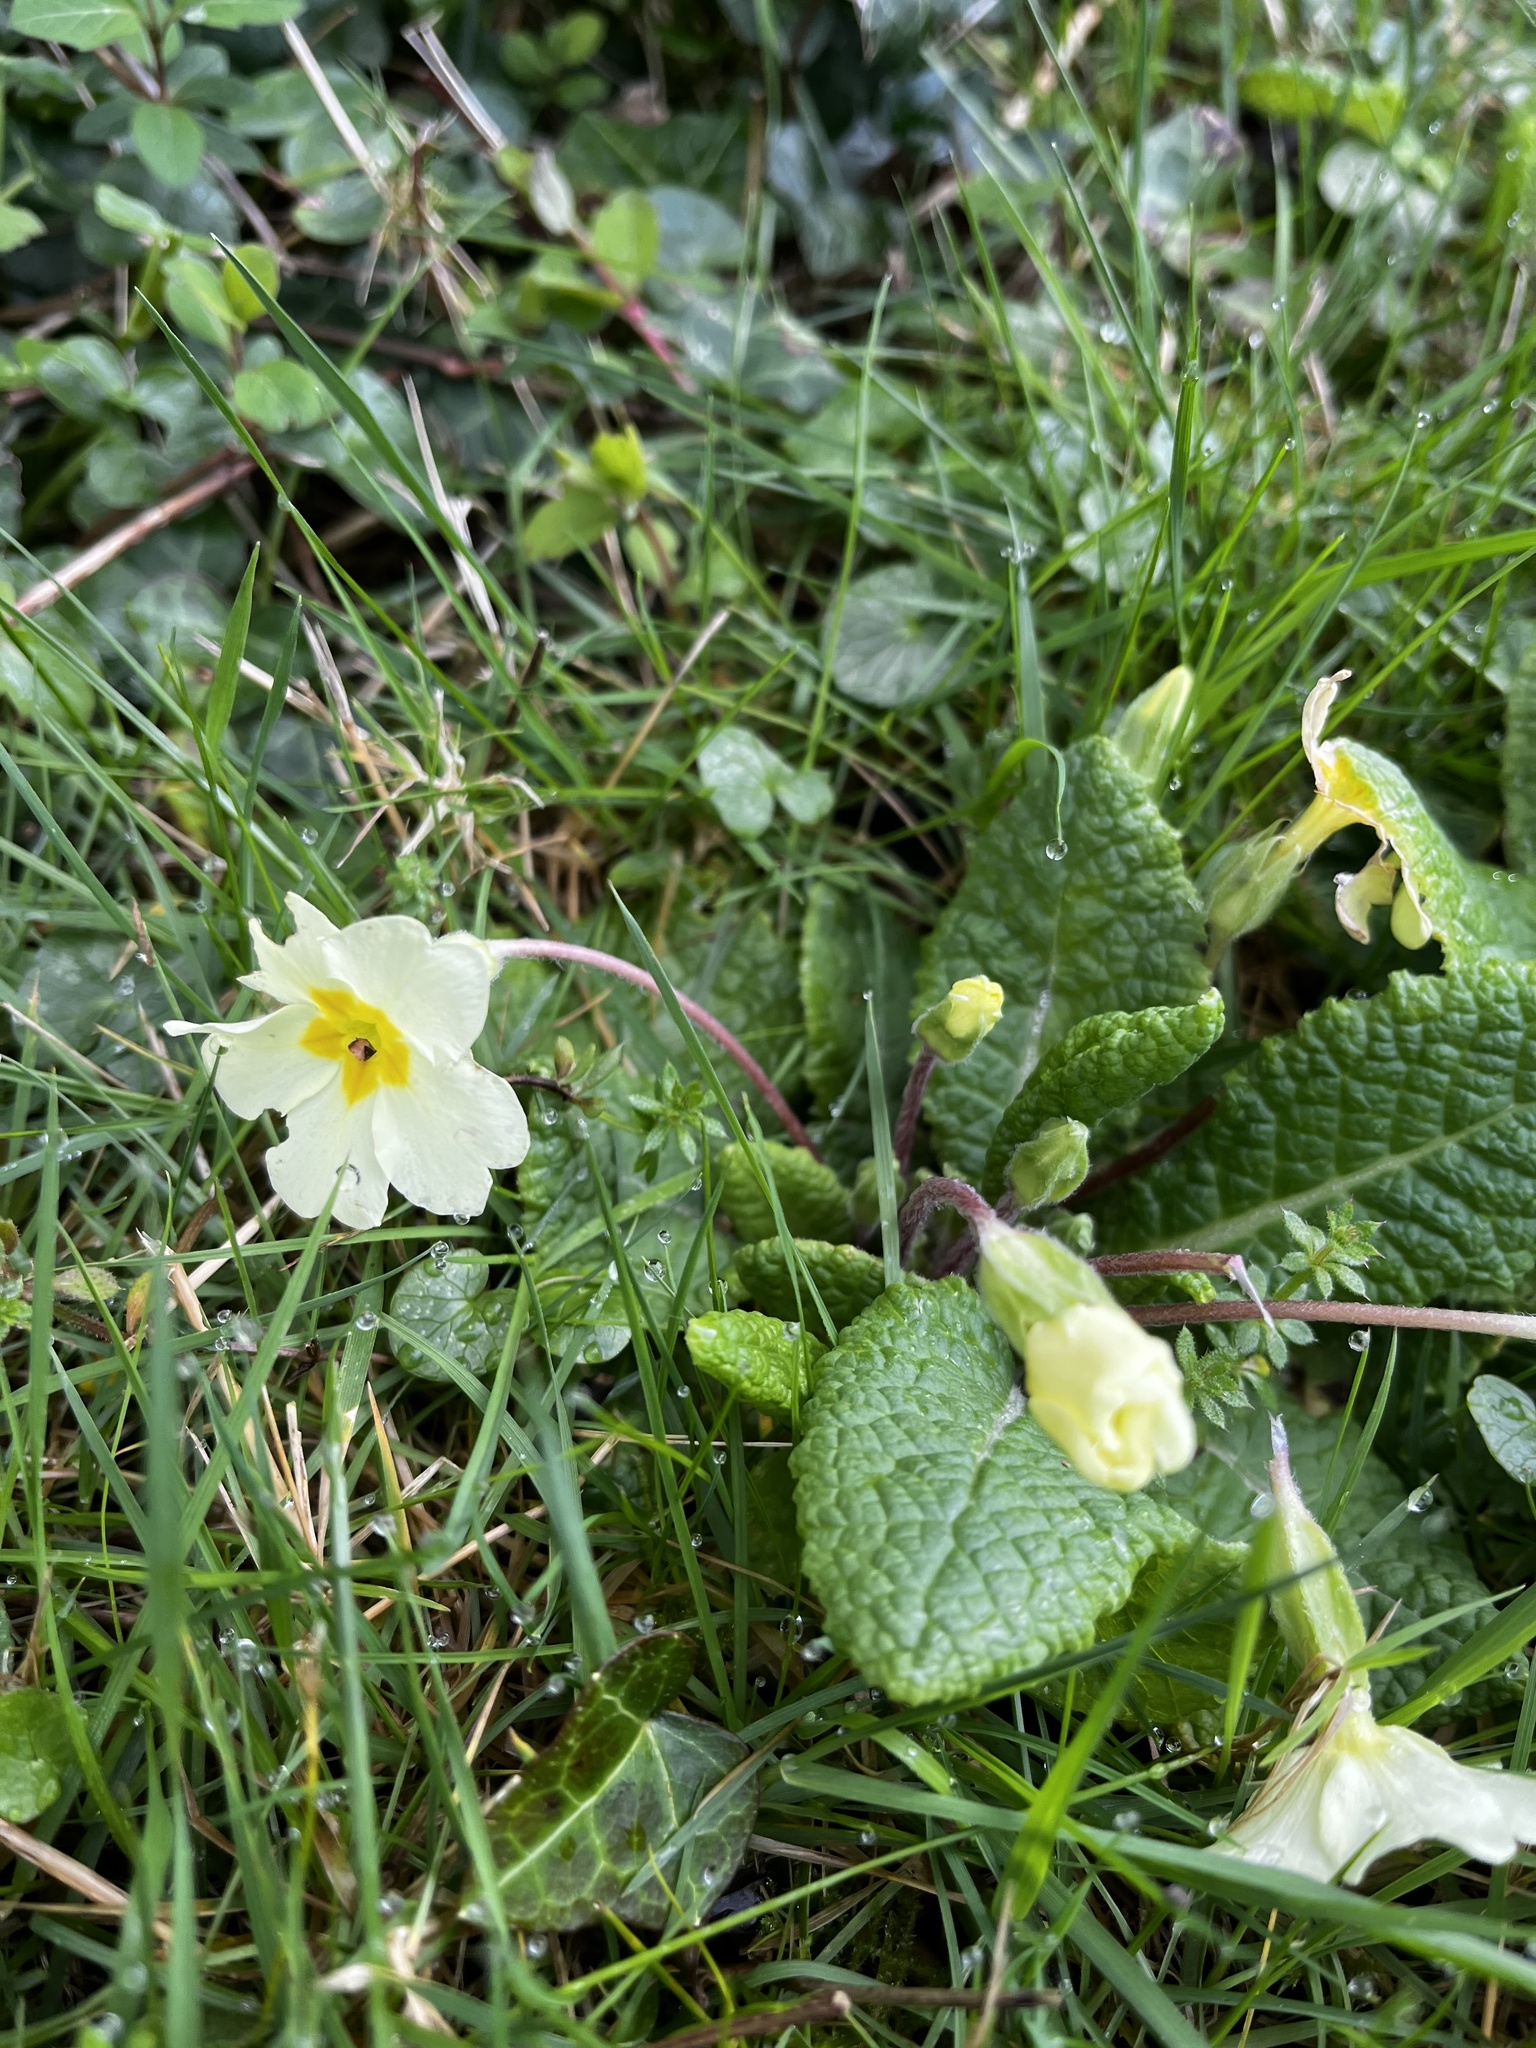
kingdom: Plantae
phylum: Tracheophyta
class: Magnoliopsida
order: Ericales
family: Primulaceae
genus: Primula
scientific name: Primula vulgaris
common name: Primrose
